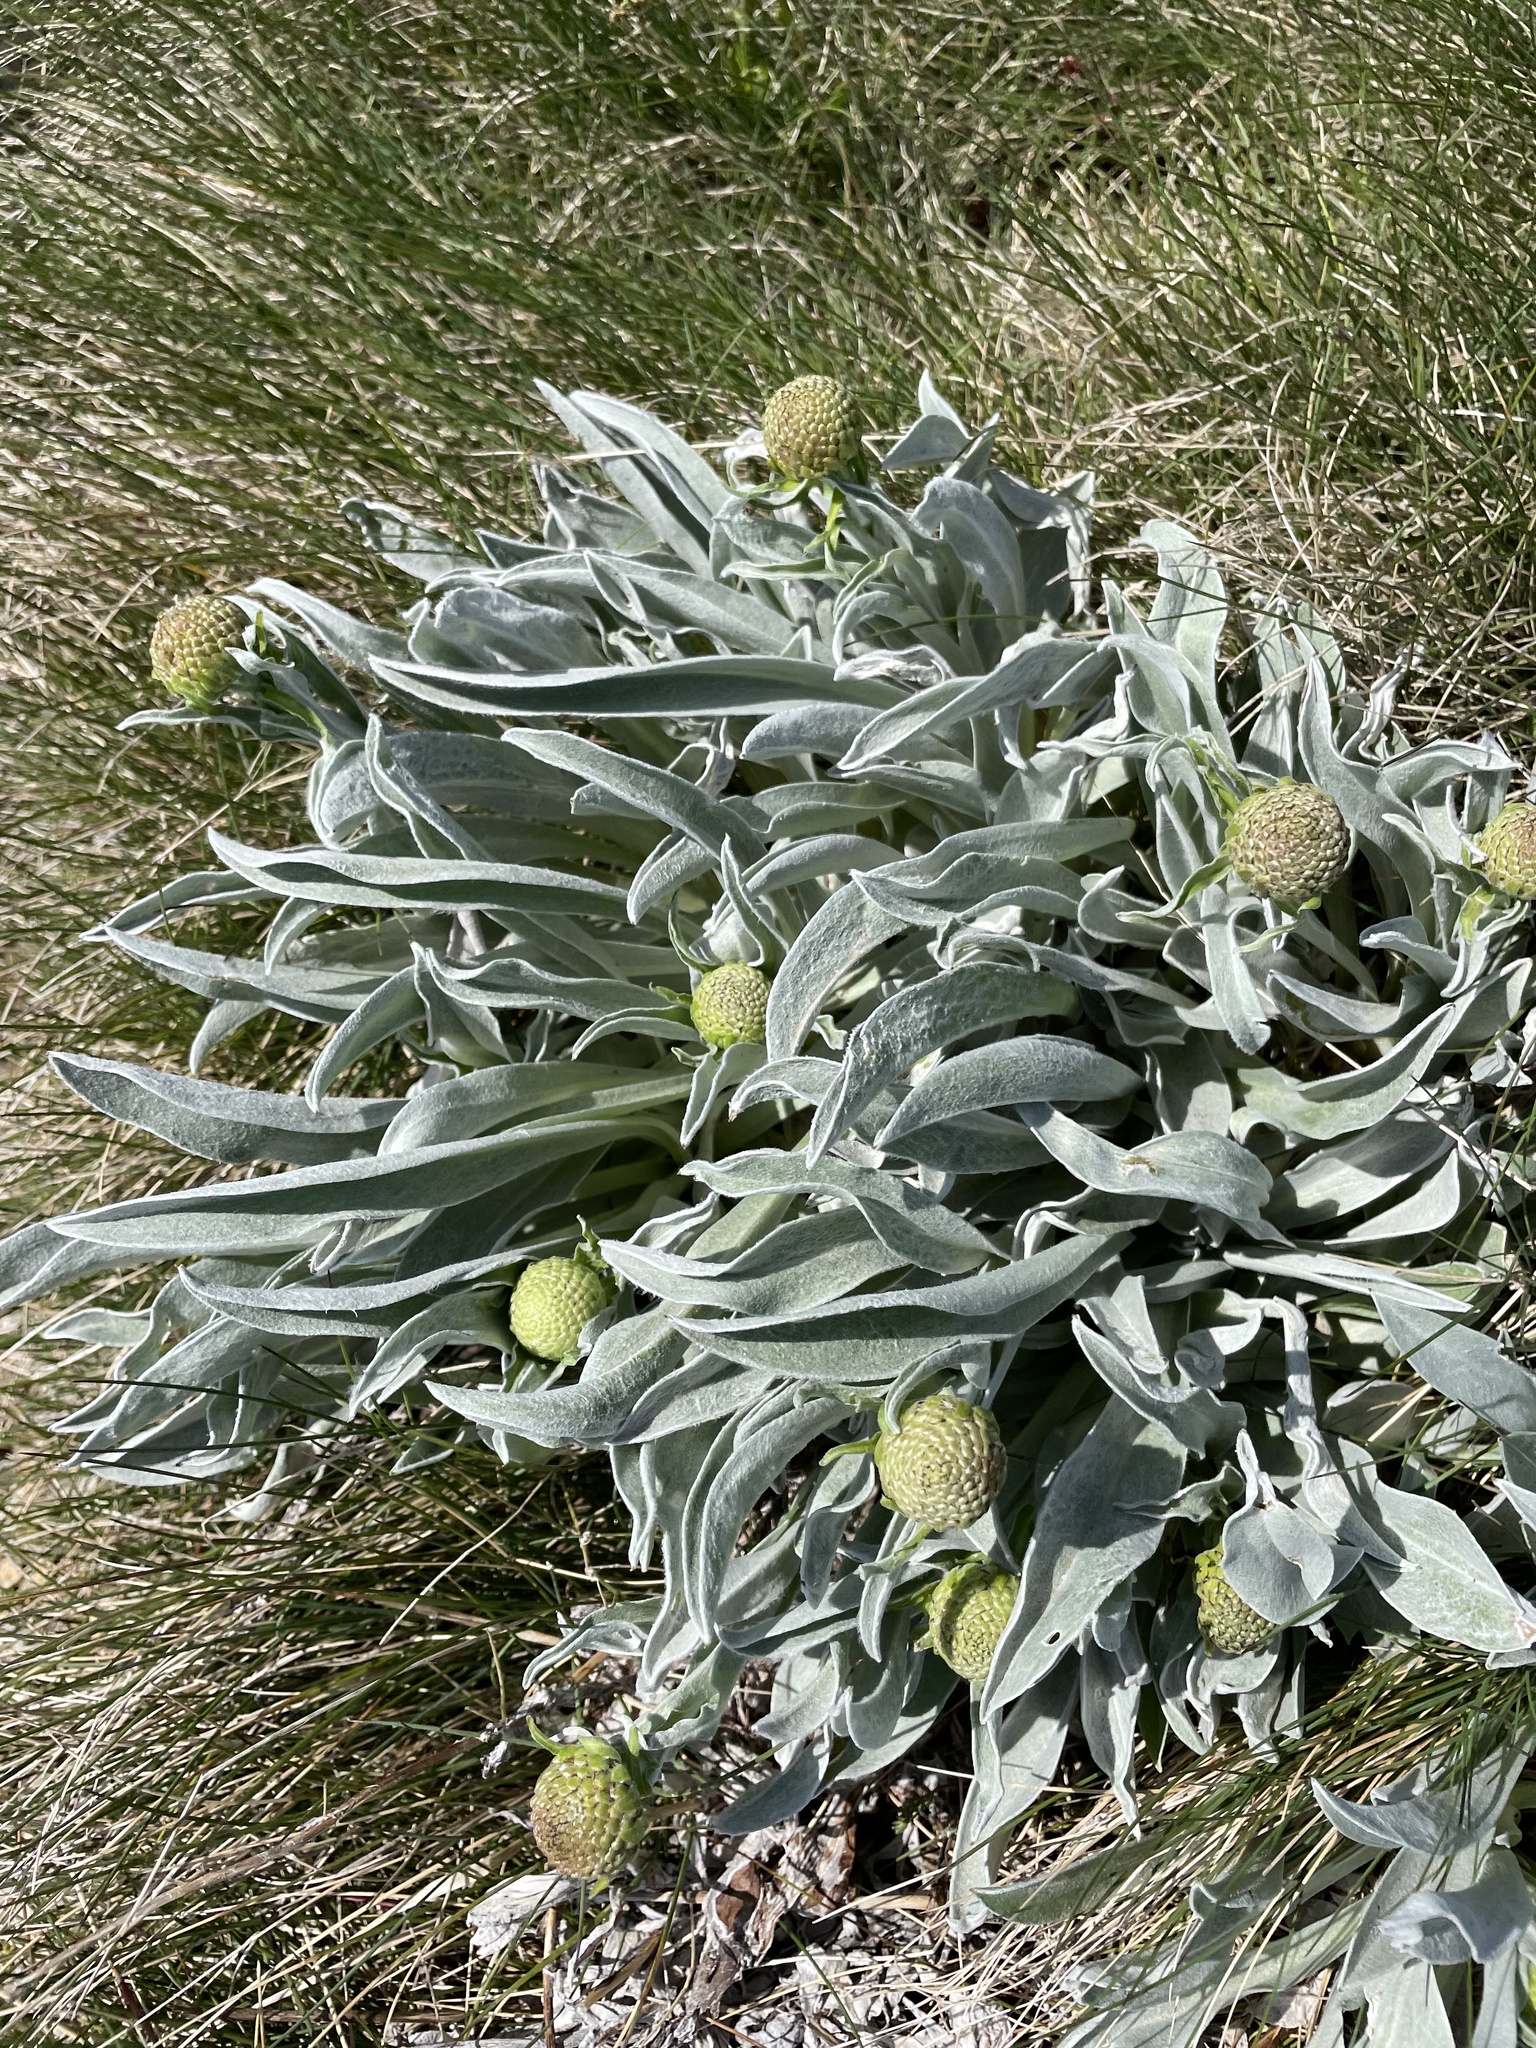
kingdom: Plantae
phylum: Tracheophyta
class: Magnoliopsida
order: Asterales
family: Asteraceae
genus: Craspedia
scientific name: Craspedia maxgrayi
